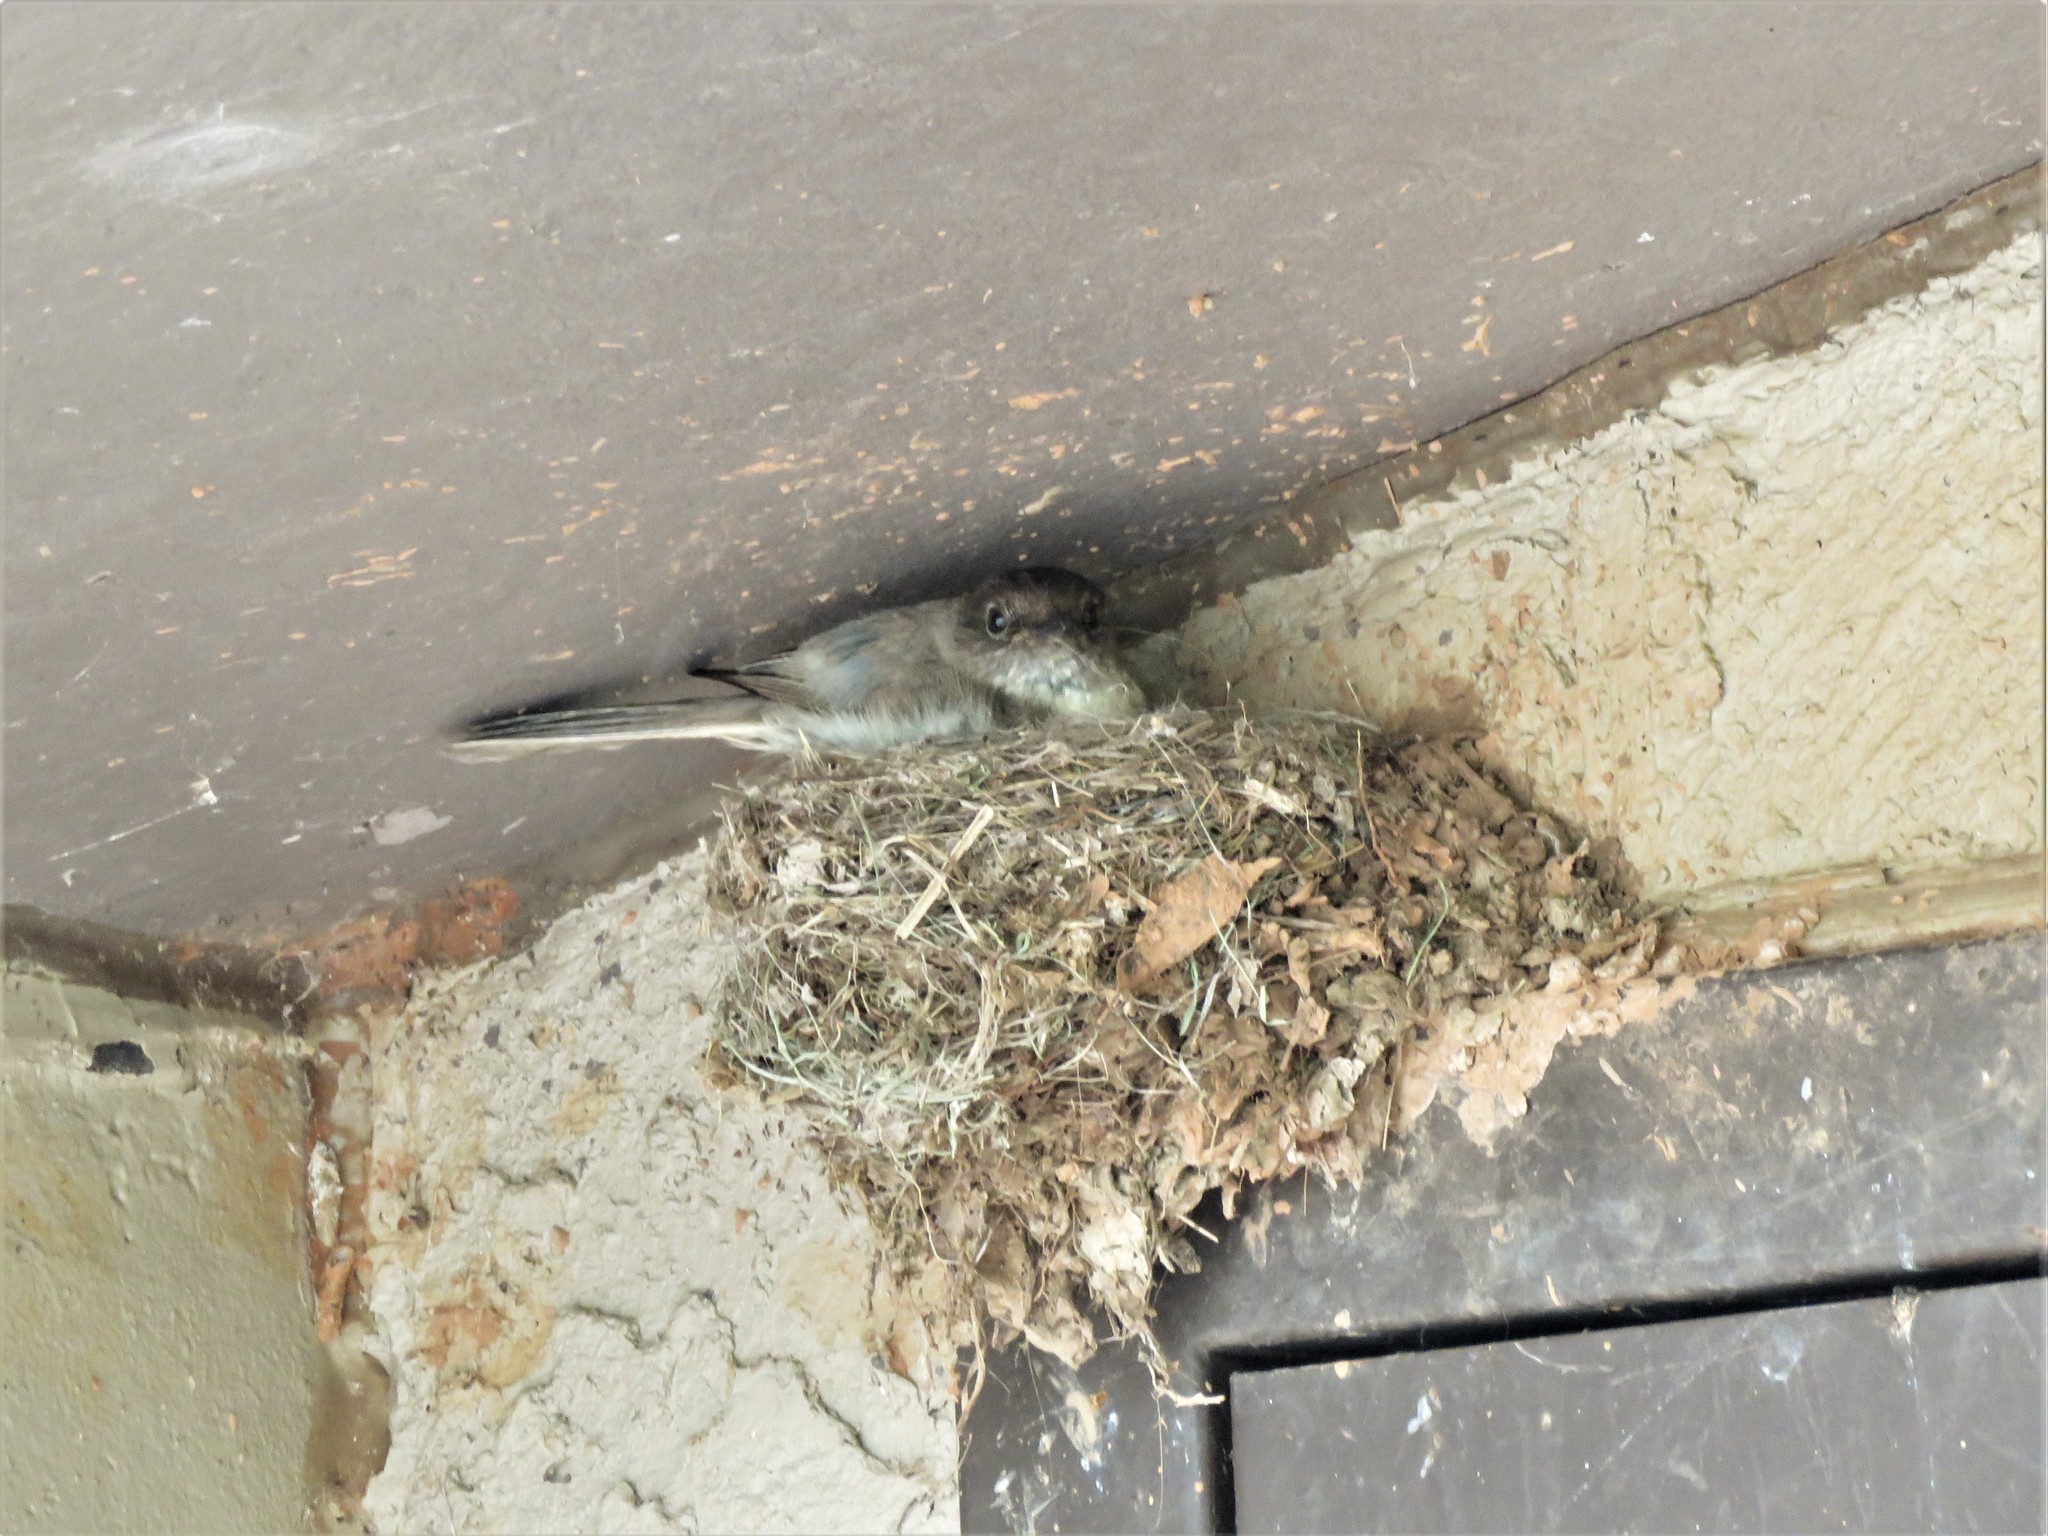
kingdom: Animalia
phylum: Chordata
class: Aves
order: Passeriformes
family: Tyrannidae
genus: Sayornis
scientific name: Sayornis phoebe
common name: Eastern phoebe
